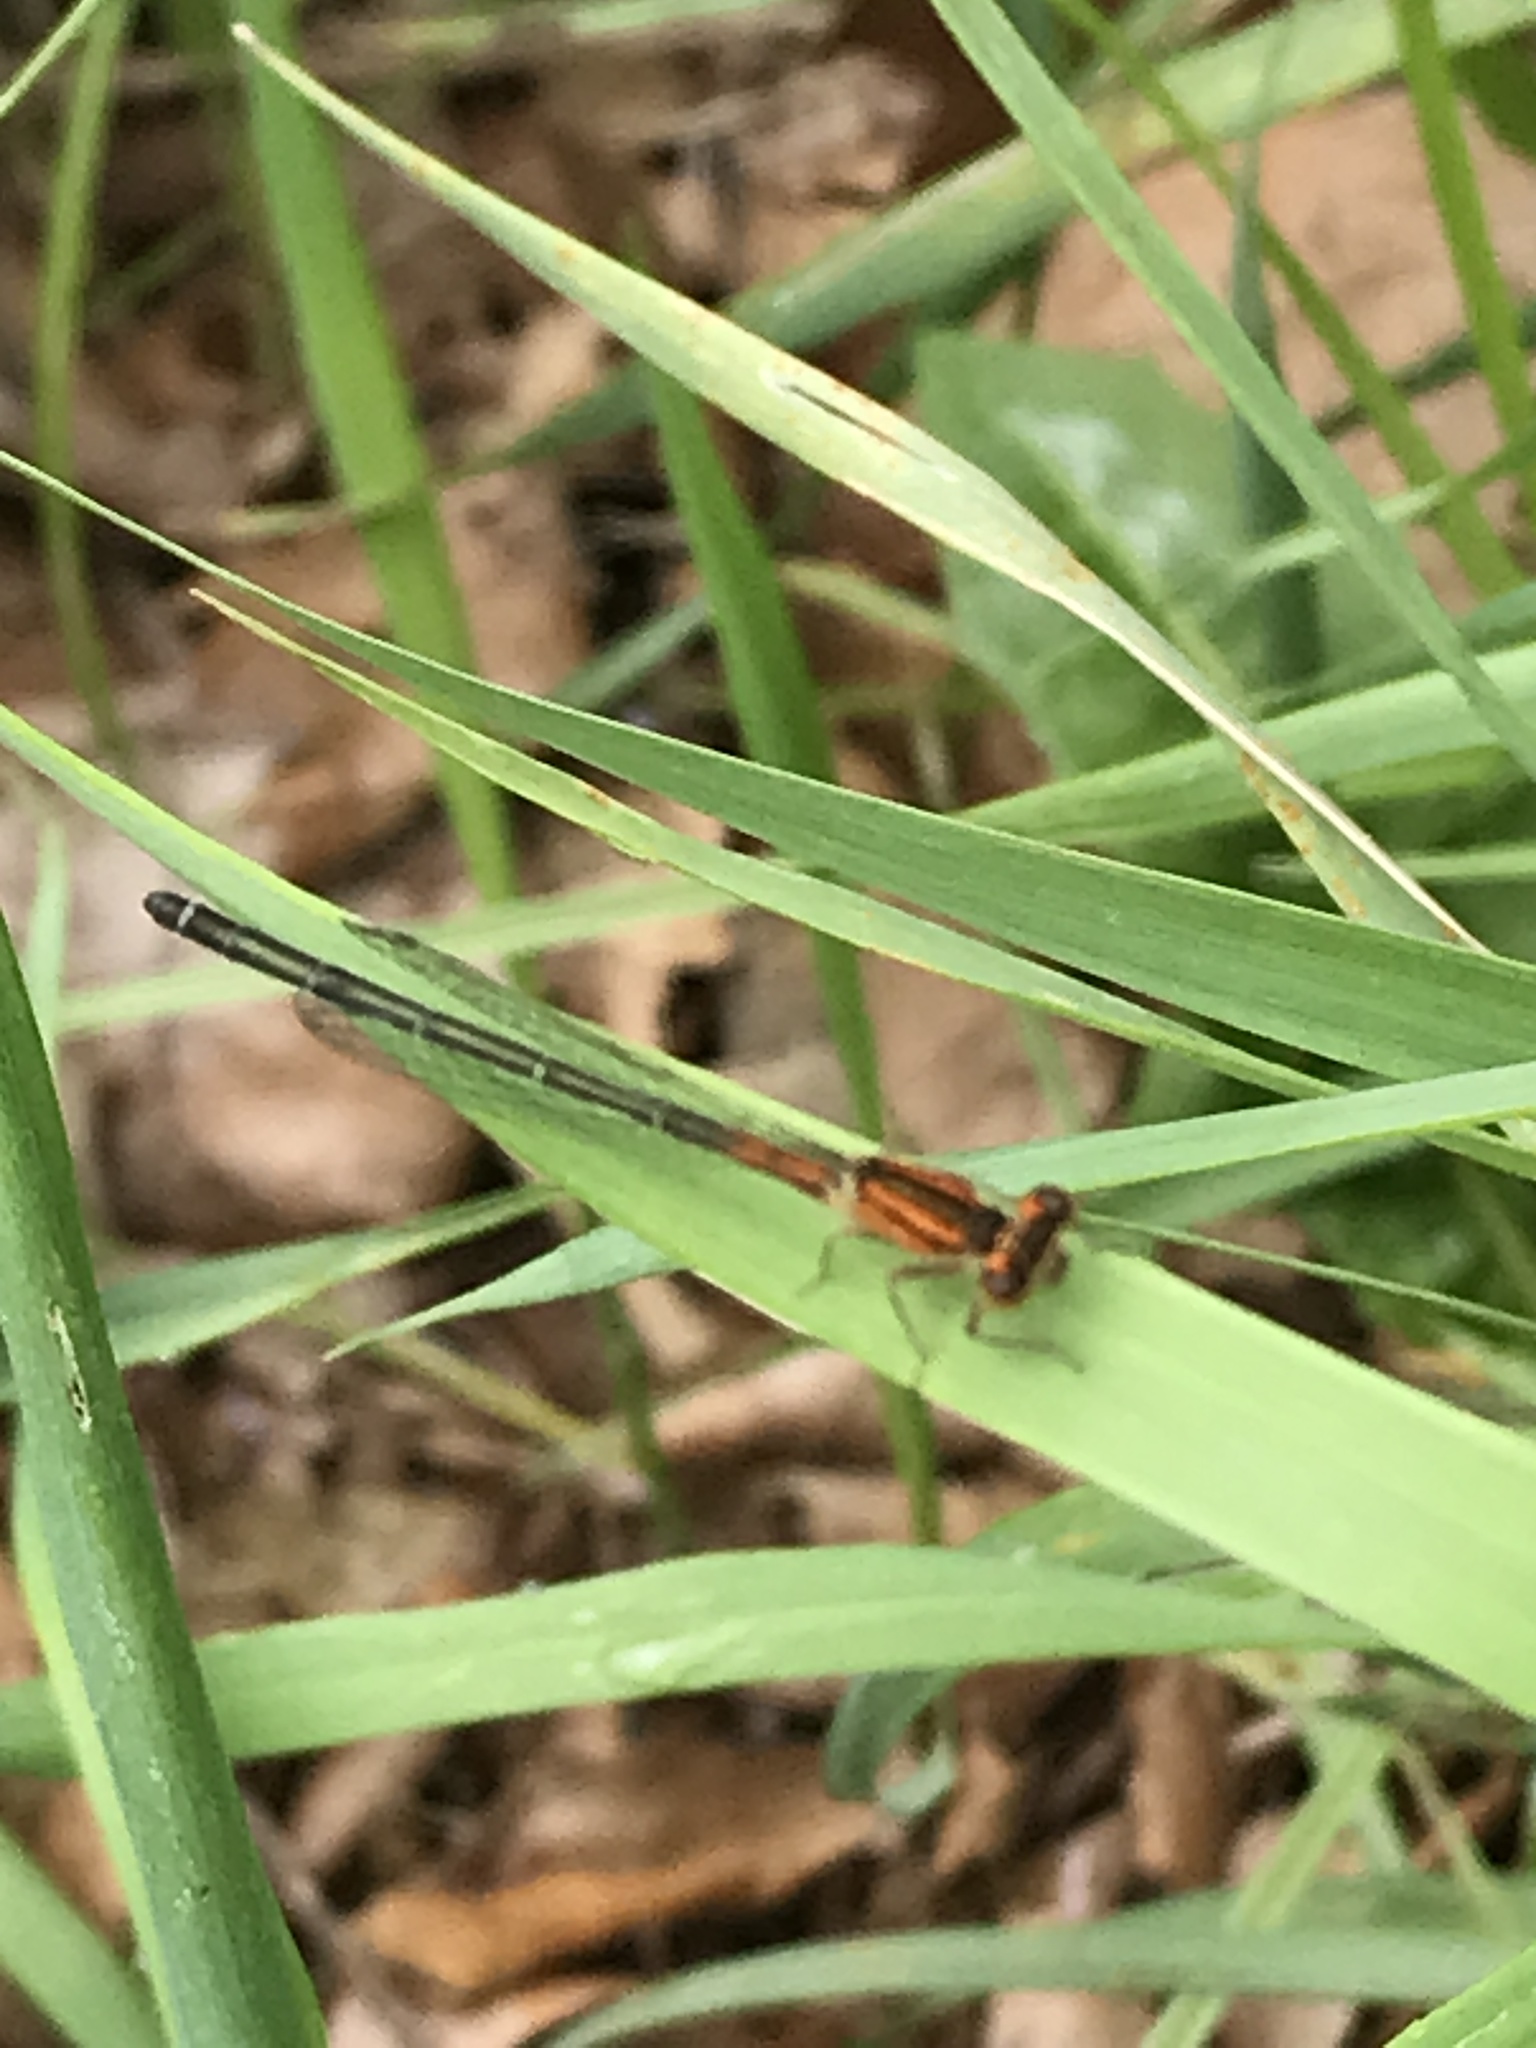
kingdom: Animalia
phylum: Arthropoda
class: Insecta
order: Odonata
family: Coenagrionidae
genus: Ischnura
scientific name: Ischnura verticalis
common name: Eastern forktail
